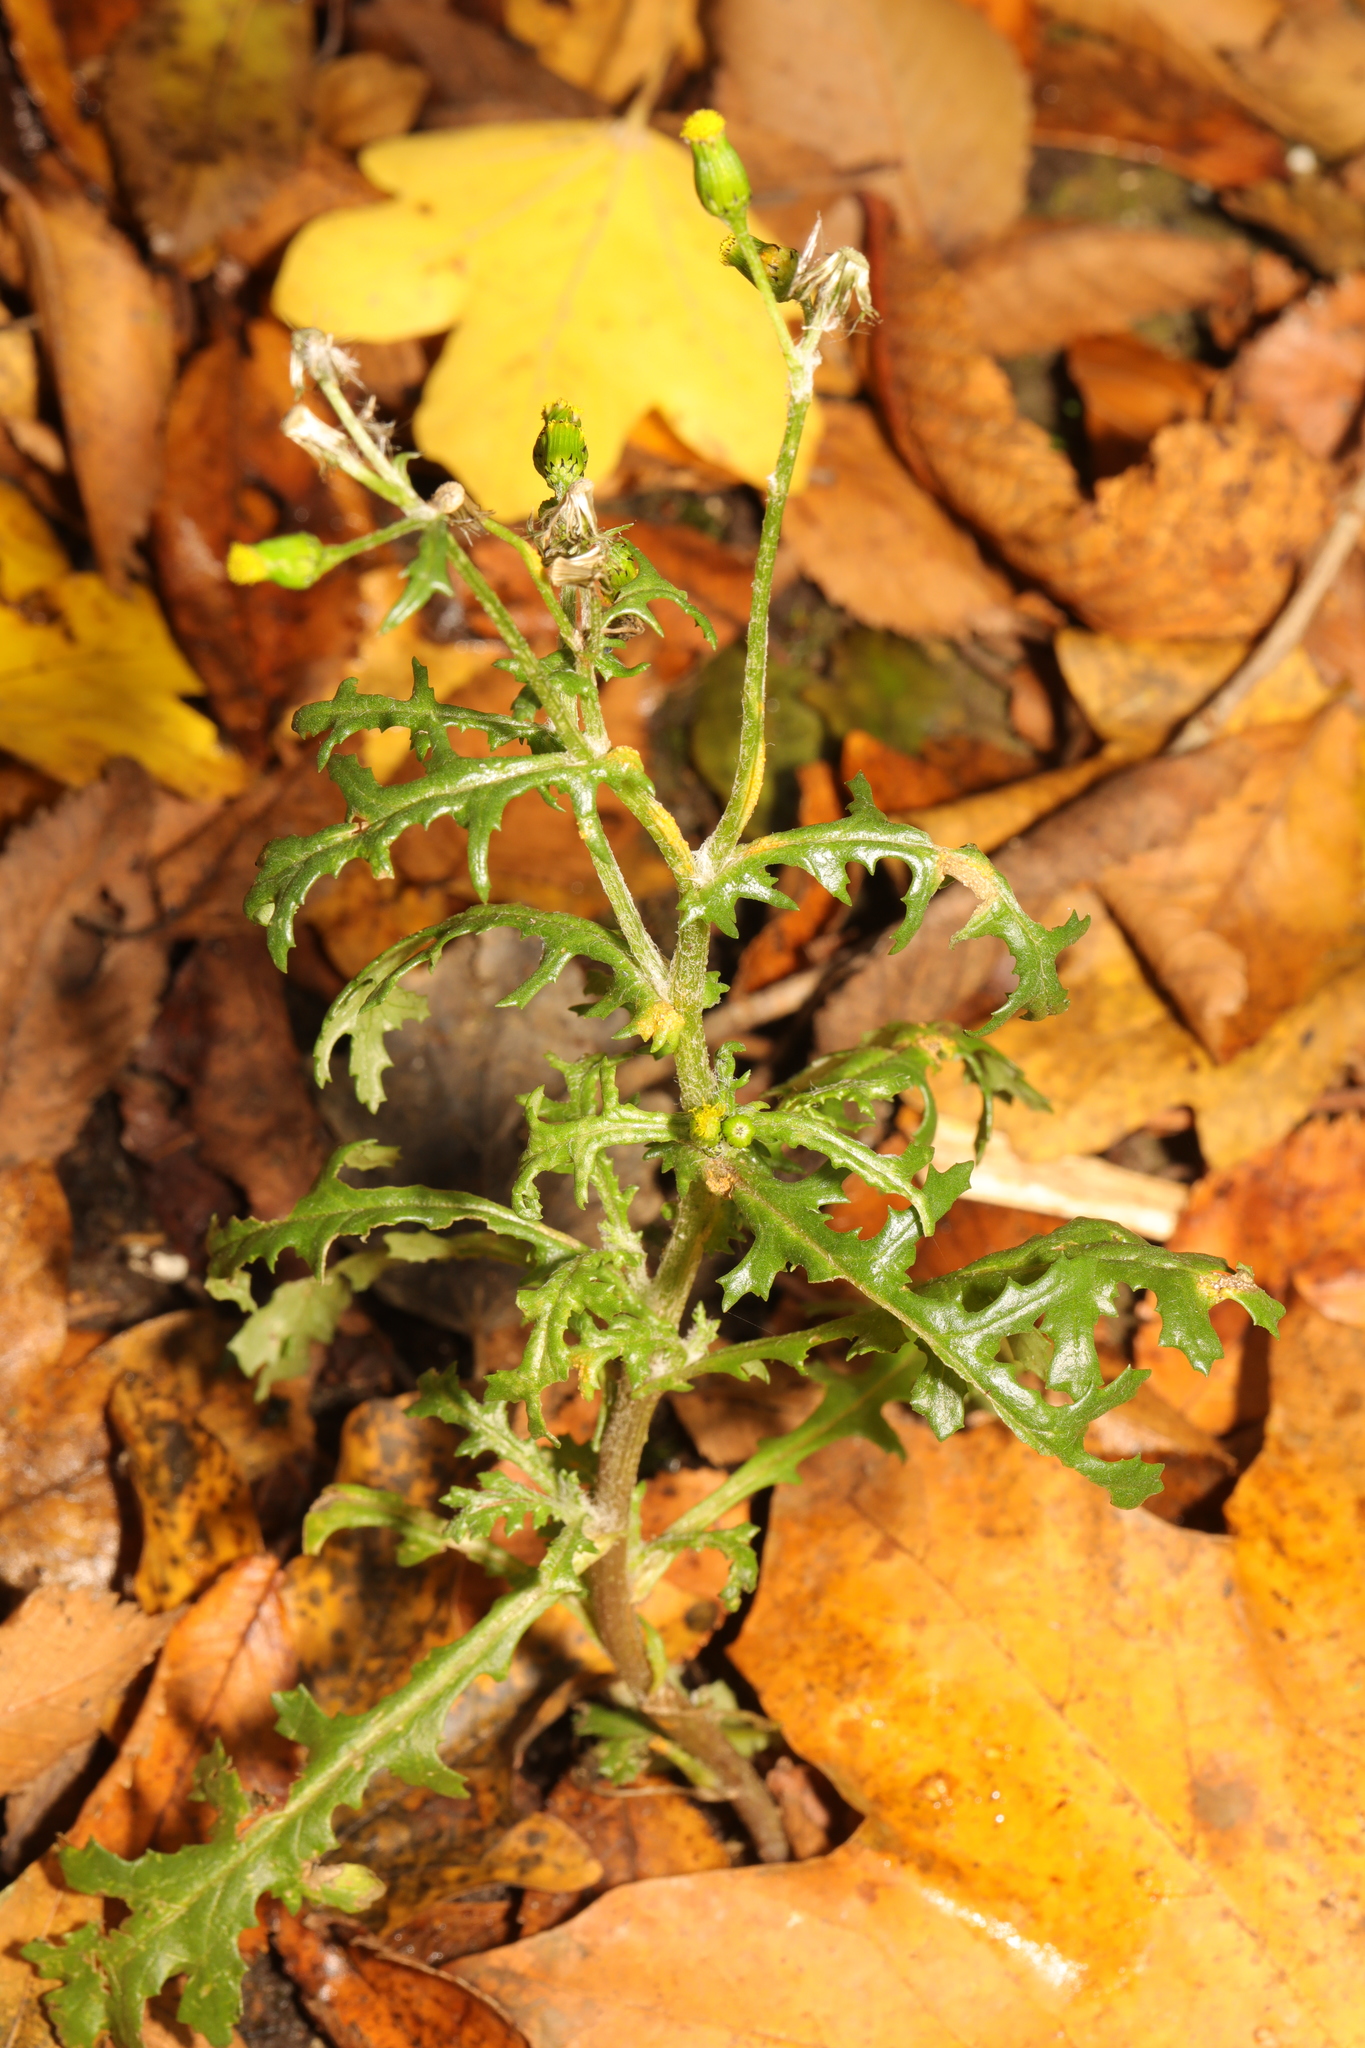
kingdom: Plantae
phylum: Tracheophyta
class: Magnoliopsida
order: Asterales
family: Asteraceae
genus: Senecio
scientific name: Senecio vulgaris
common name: Old-man-in-the-spring
